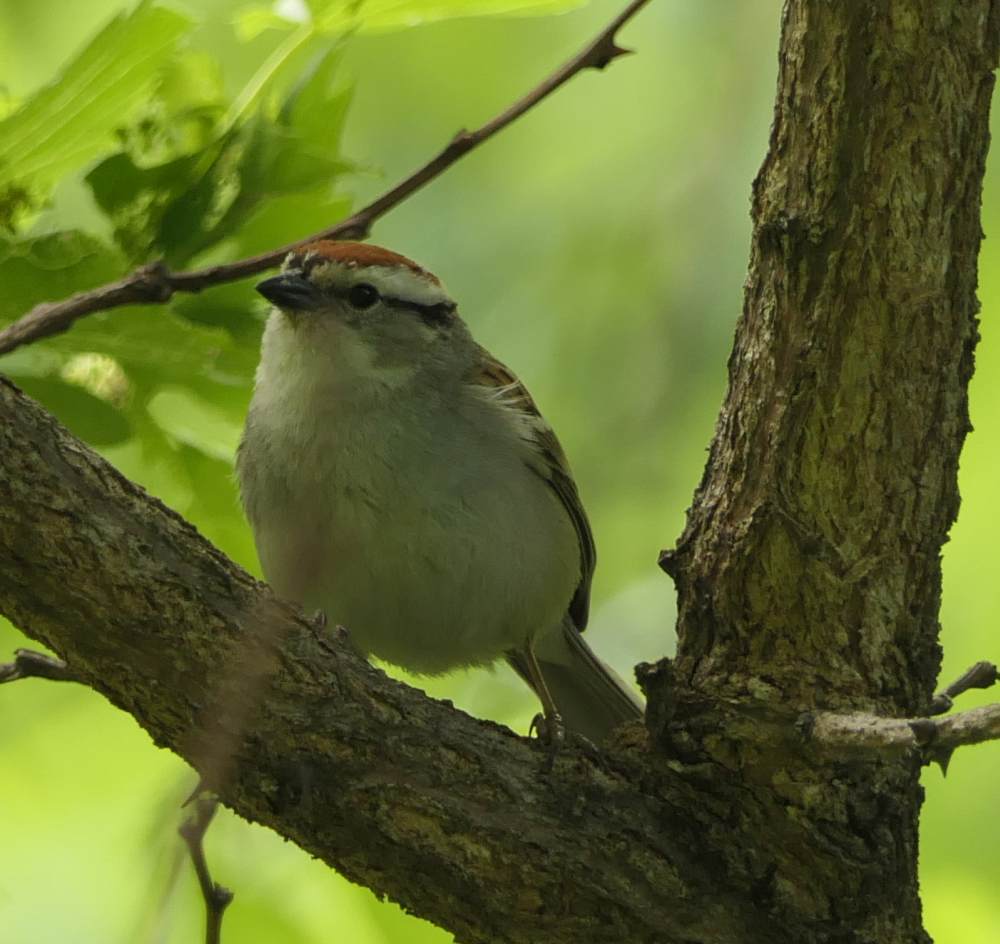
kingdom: Animalia
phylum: Chordata
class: Aves
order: Passeriformes
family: Passerellidae
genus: Spizella
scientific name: Spizella passerina
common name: Chipping sparrow
